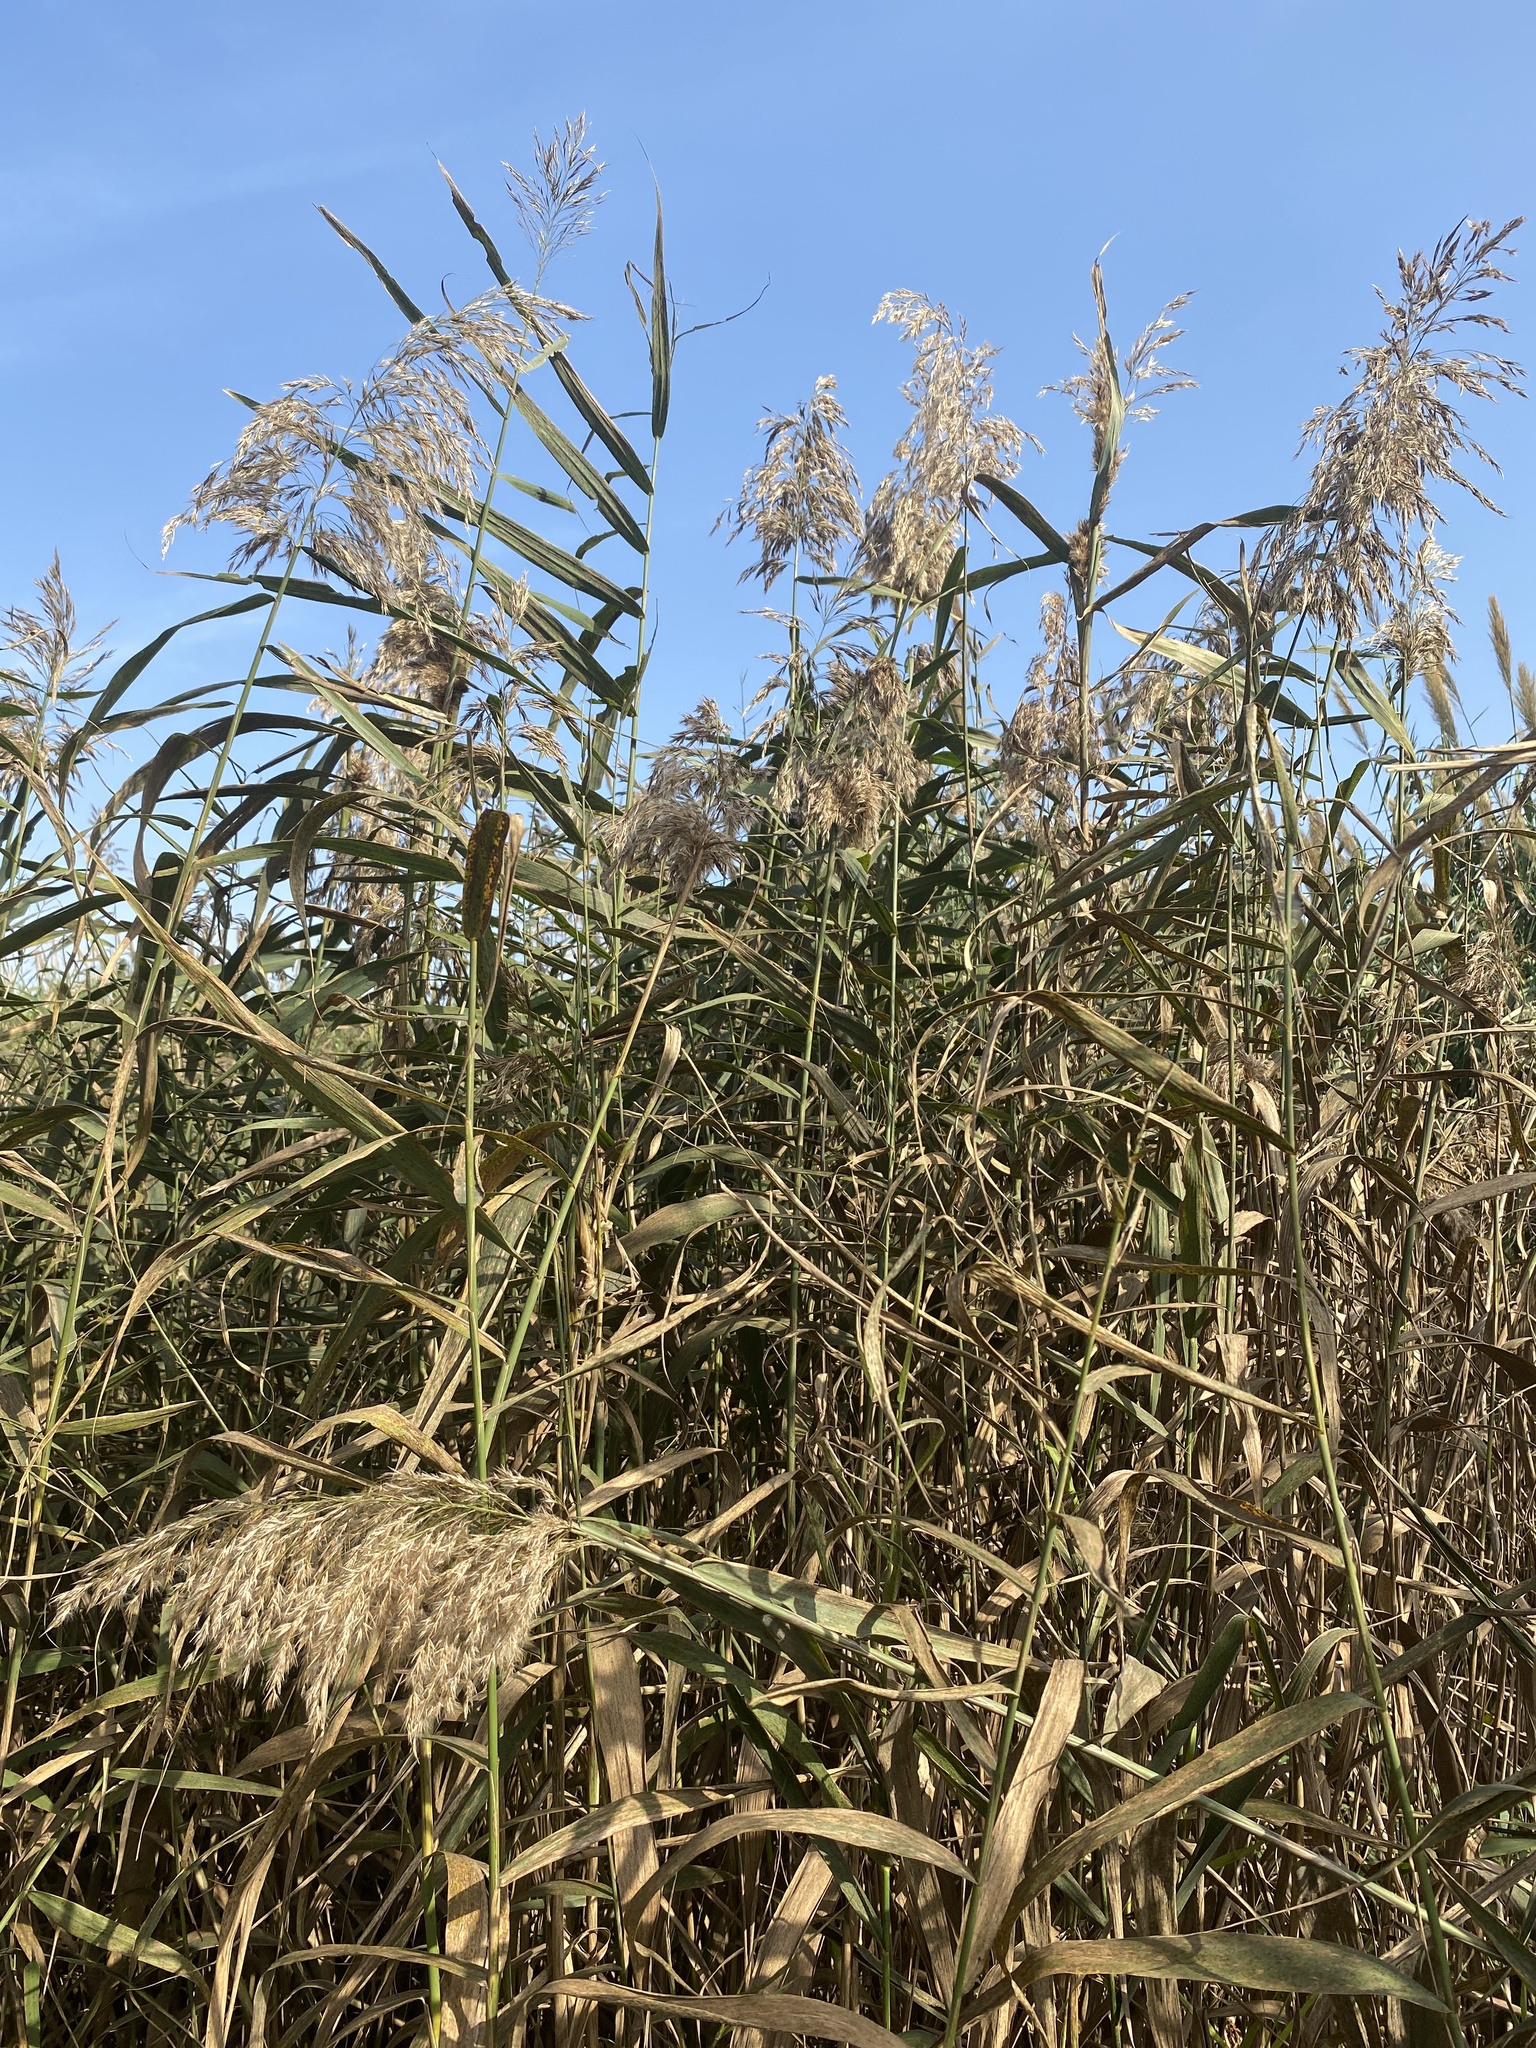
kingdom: Plantae
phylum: Tracheophyta
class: Liliopsida
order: Poales
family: Poaceae
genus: Phragmites
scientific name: Phragmites australis
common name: Common reed
